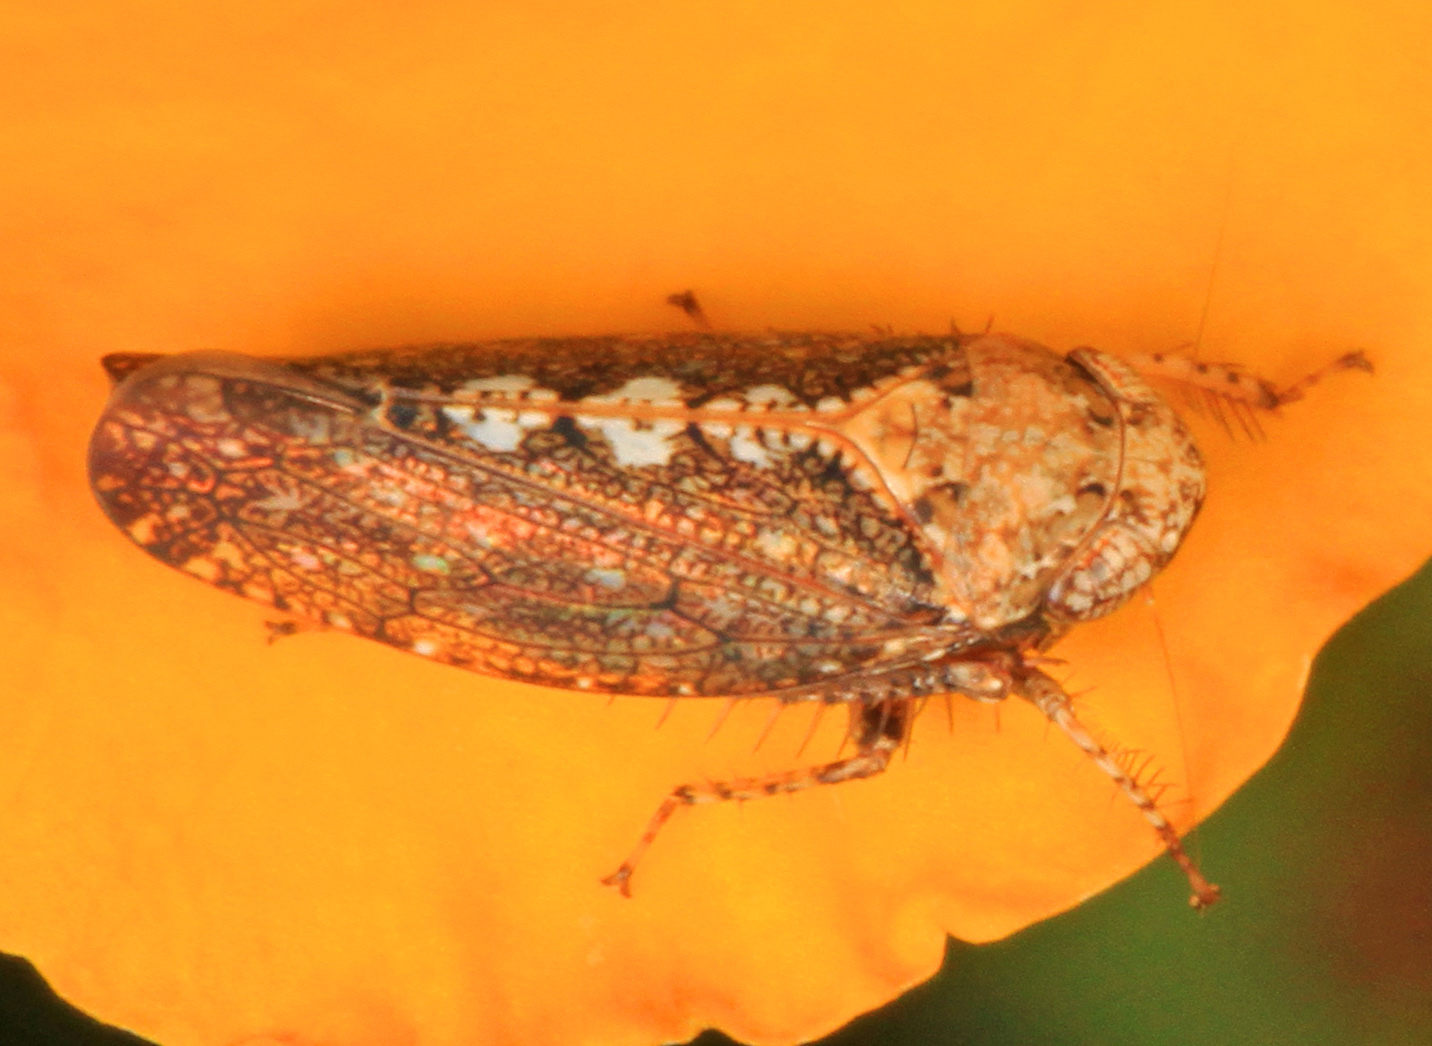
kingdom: Animalia
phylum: Arthropoda
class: Insecta
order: Hemiptera
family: Cicadellidae
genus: Excultanus
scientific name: Excultanus excultus
